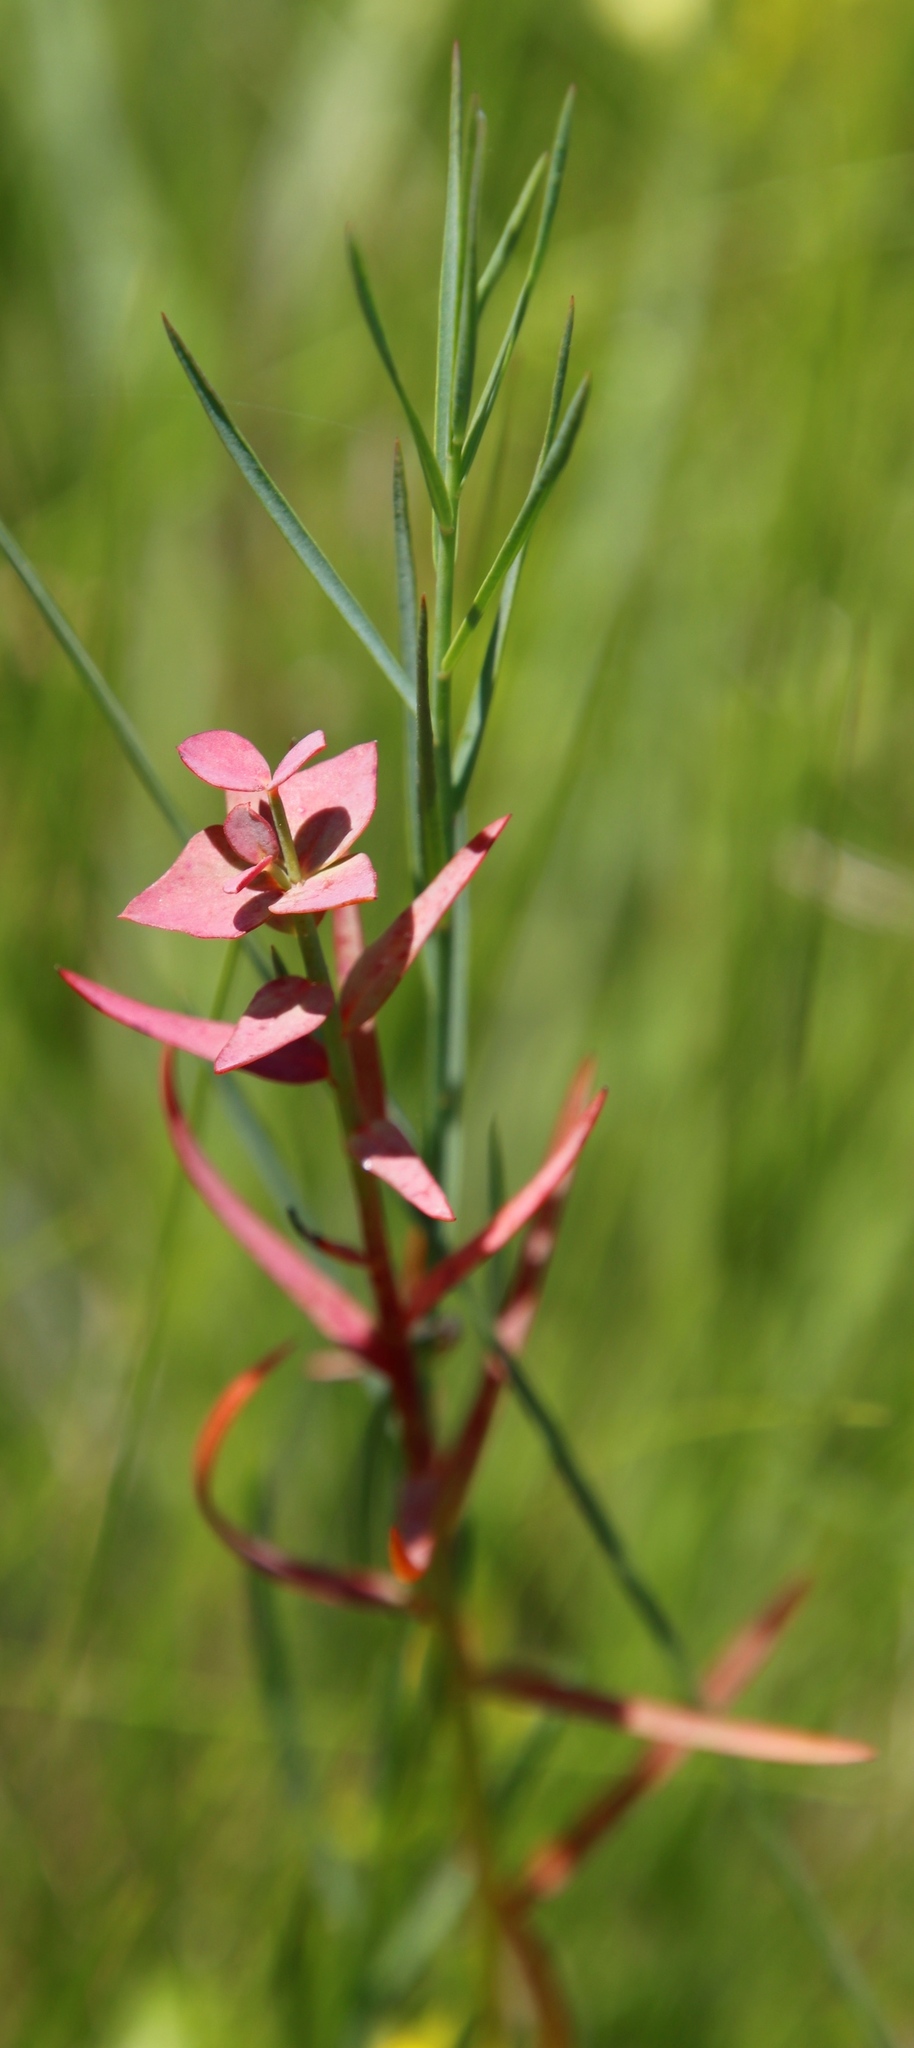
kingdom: Plantae
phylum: Tracheophyta
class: Magnoliopsida
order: Malpighiales
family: Euphorbiaceae
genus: Euphorbia
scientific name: Euphorbia striata
